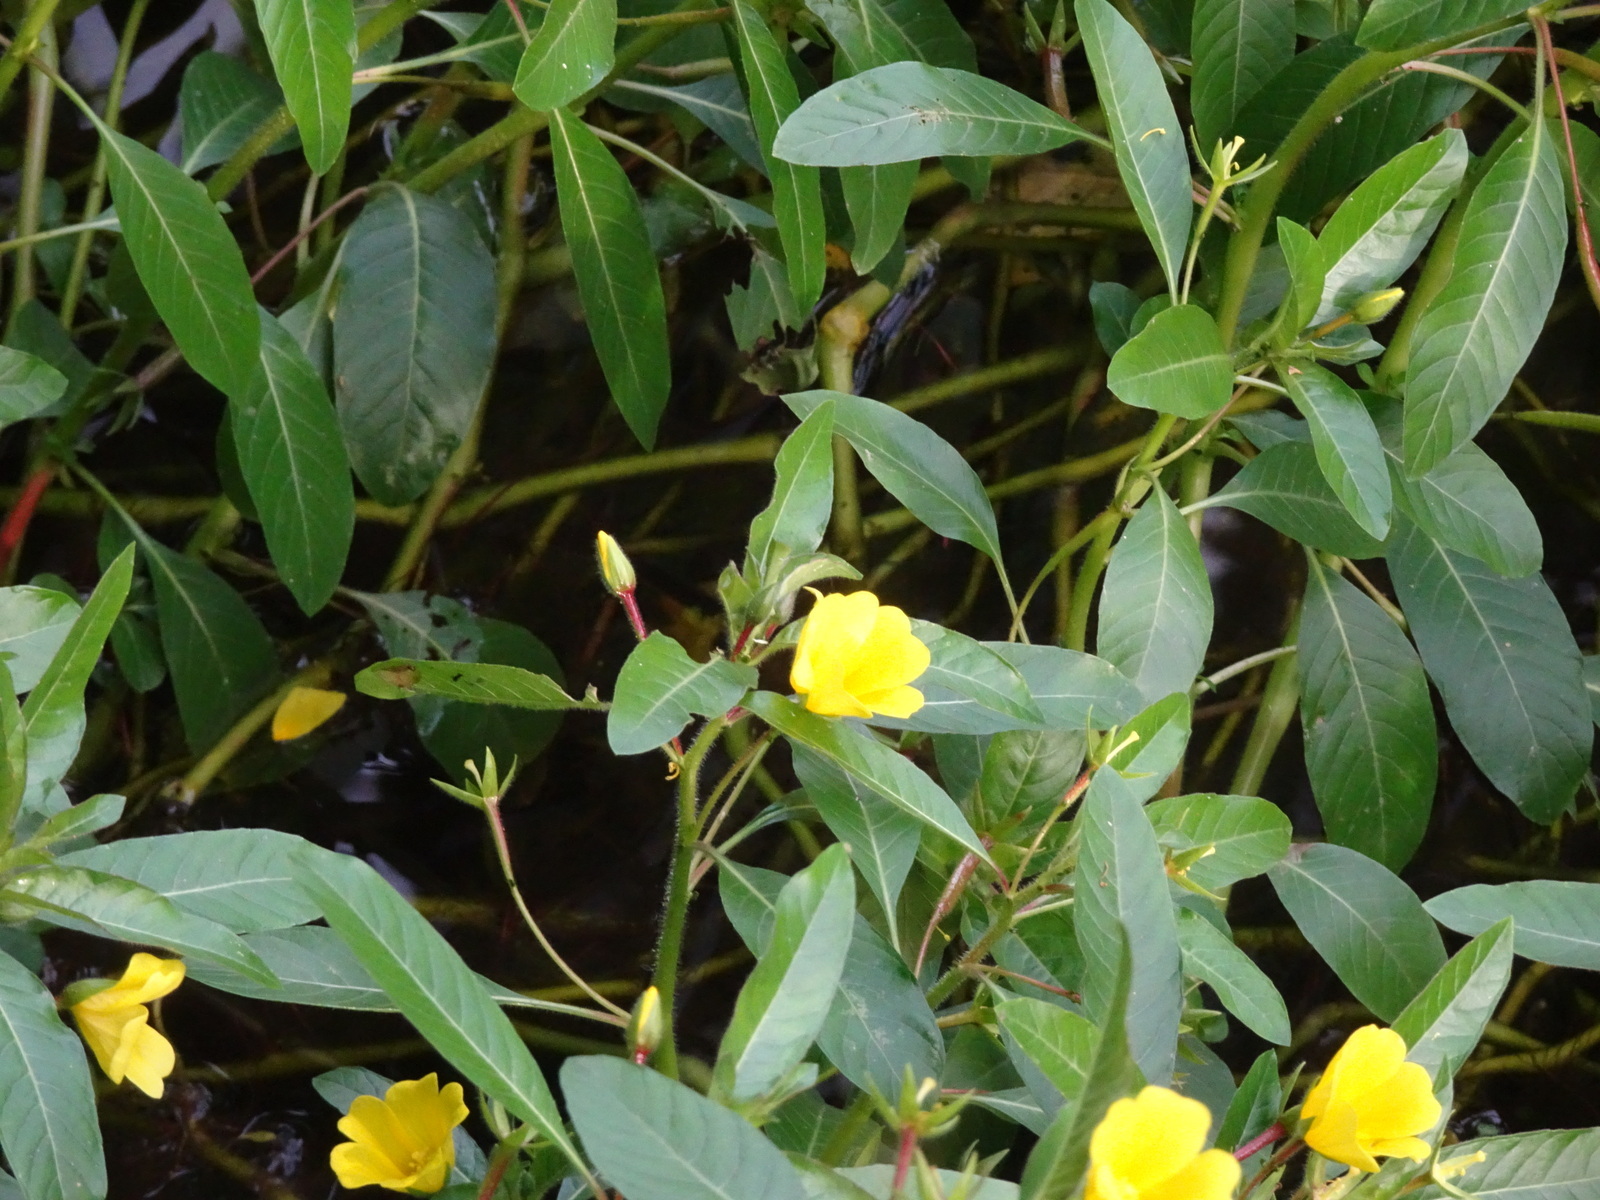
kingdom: Plantae
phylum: Tracheophyta
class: Magnoliopsida
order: Myrtales
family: Onagraceae
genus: Ludwigia
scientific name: Ludwigia peploides
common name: Floating primrose-willow
